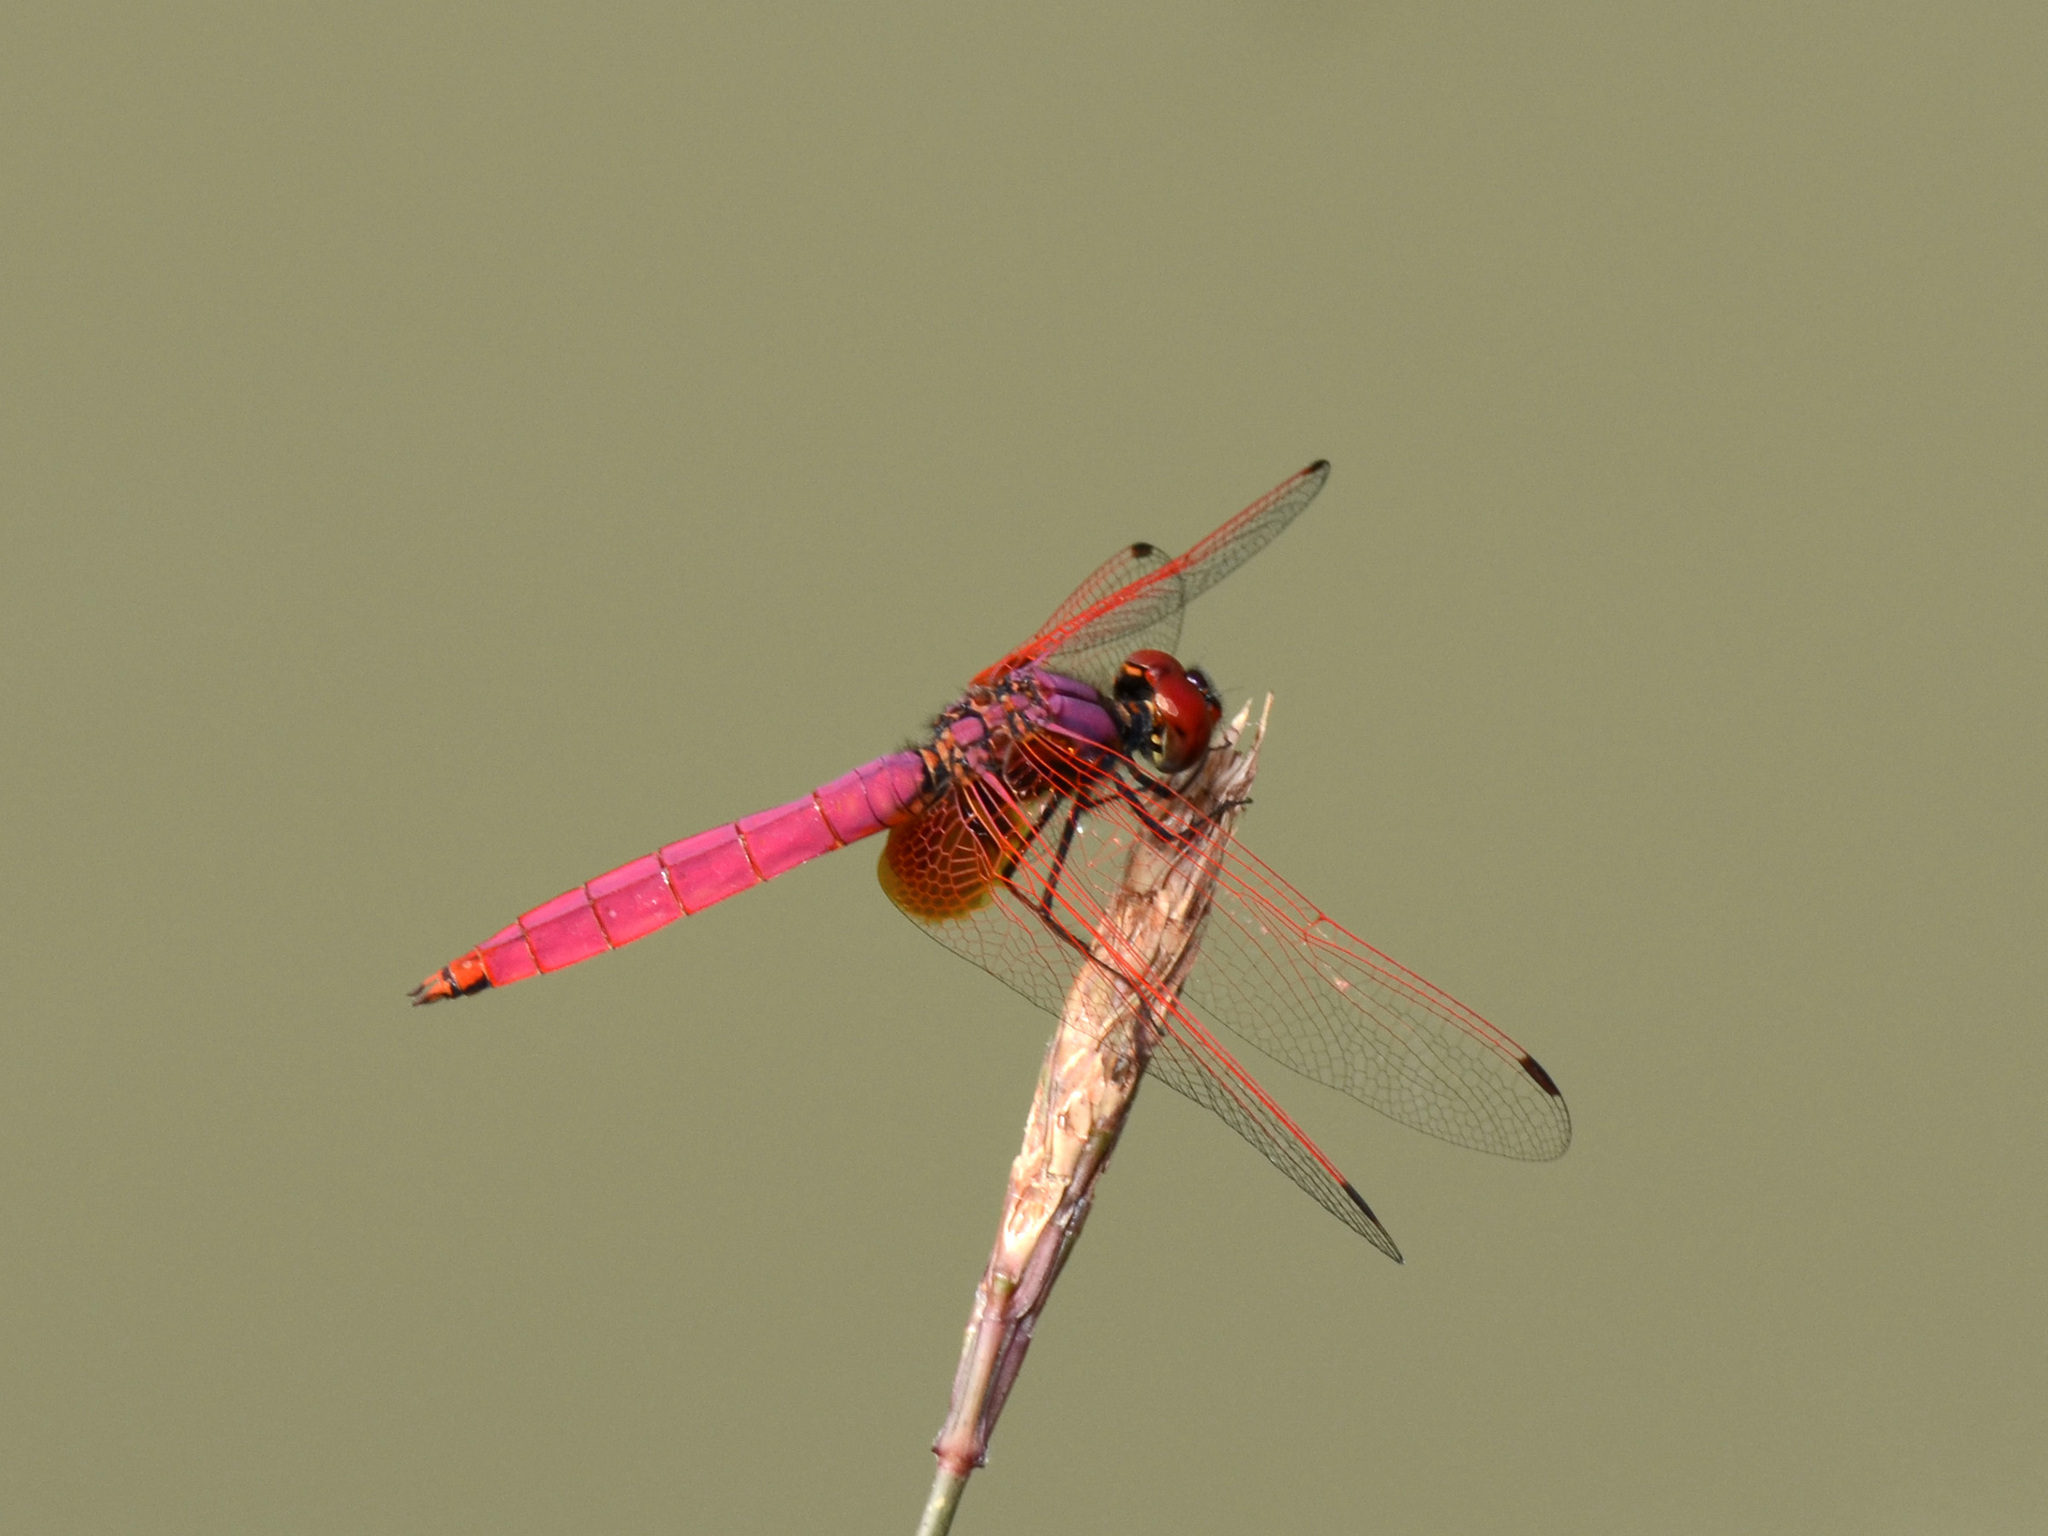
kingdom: Animalia
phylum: Arthropoda
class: Insecta
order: Odonata
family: Libellulidae
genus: Trithemis
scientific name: Trithemis aurora
